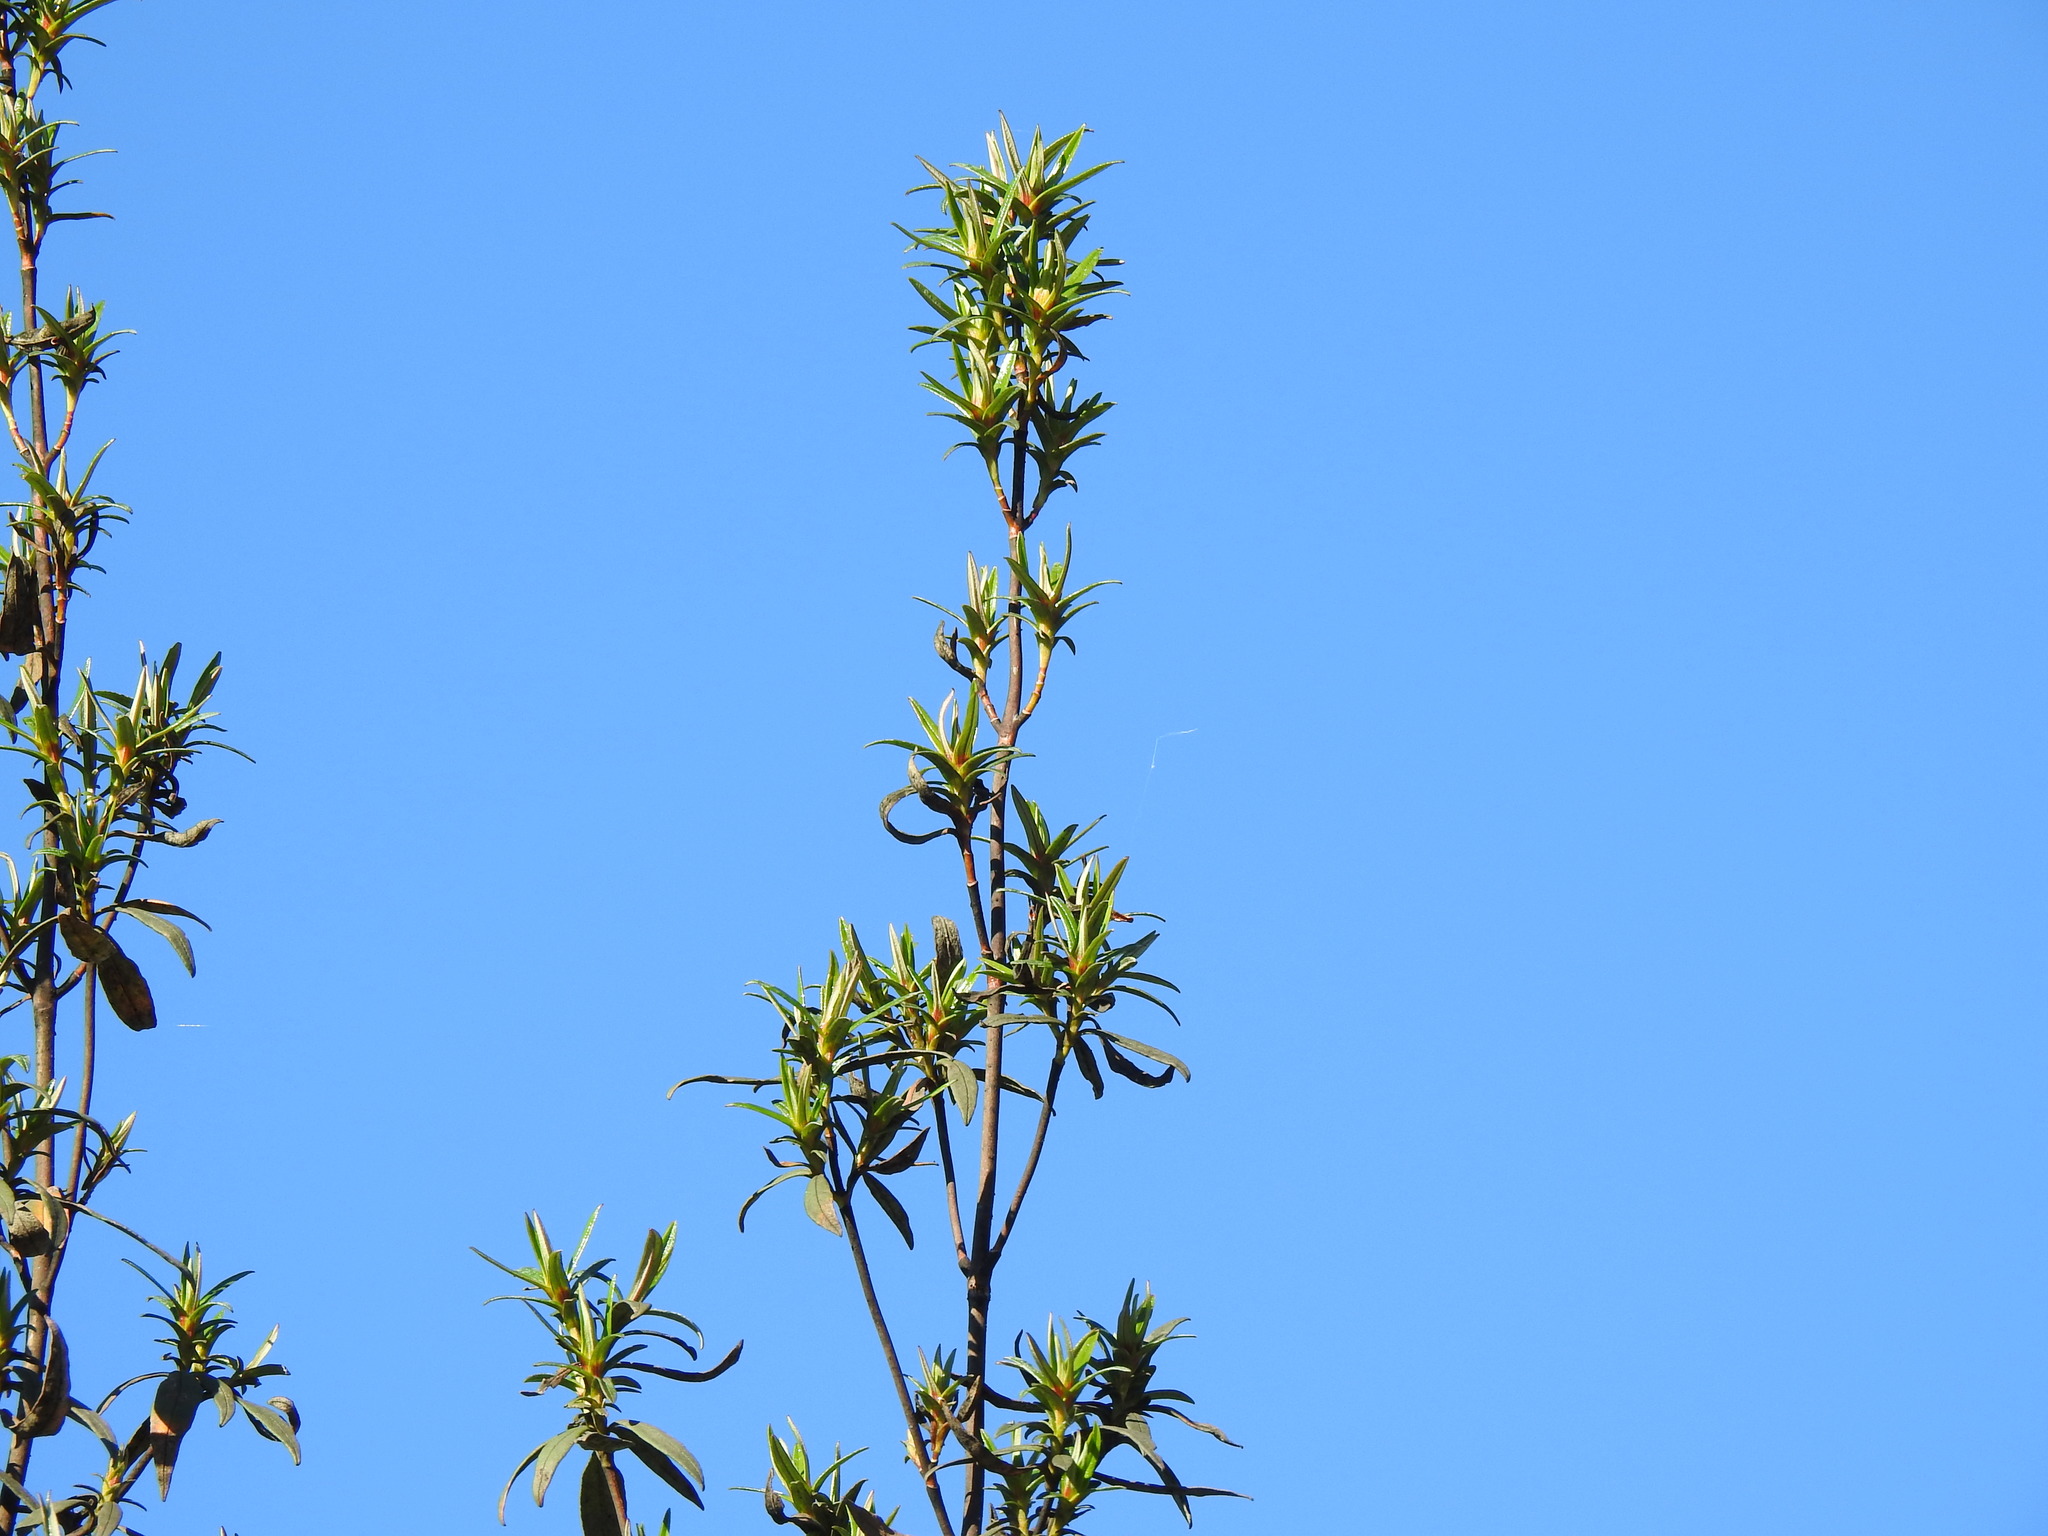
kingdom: Plantae
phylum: Tracheophyta
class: Magnoliopsida
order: Malvales
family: Cistaceae
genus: Cistus
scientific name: Cistus ladanifer
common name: Common gum cistus
